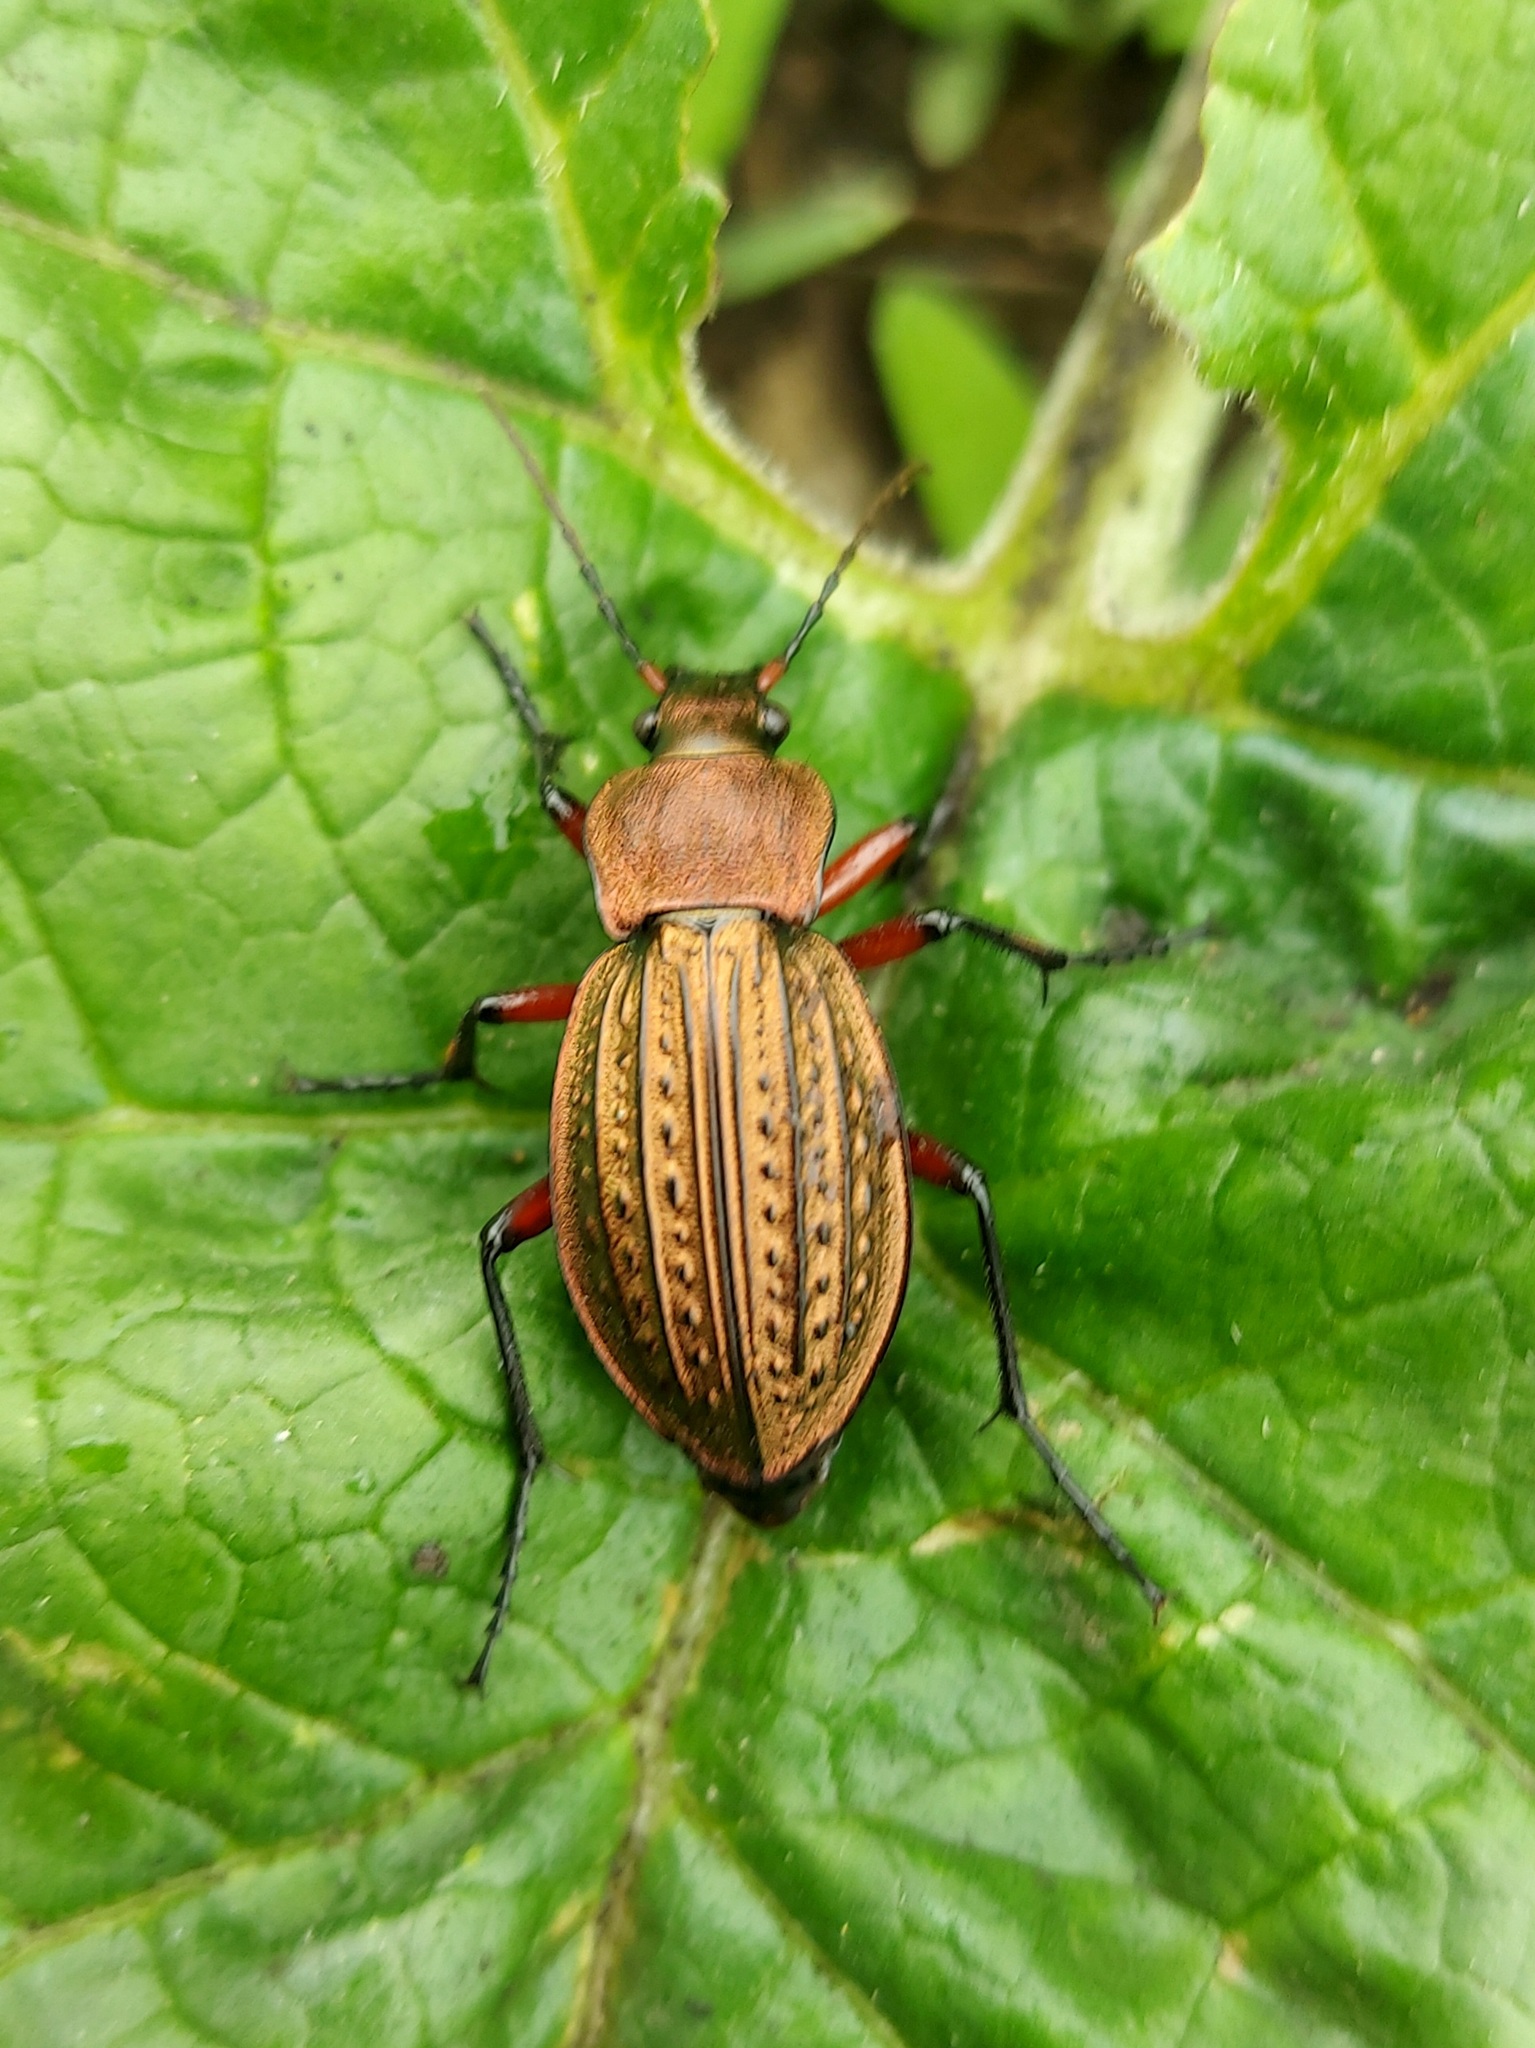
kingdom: Animalia
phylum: Arthropoda
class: Insecta
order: Coleoptera
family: Carabidae
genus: Carabus
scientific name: Carabus cancellatus
